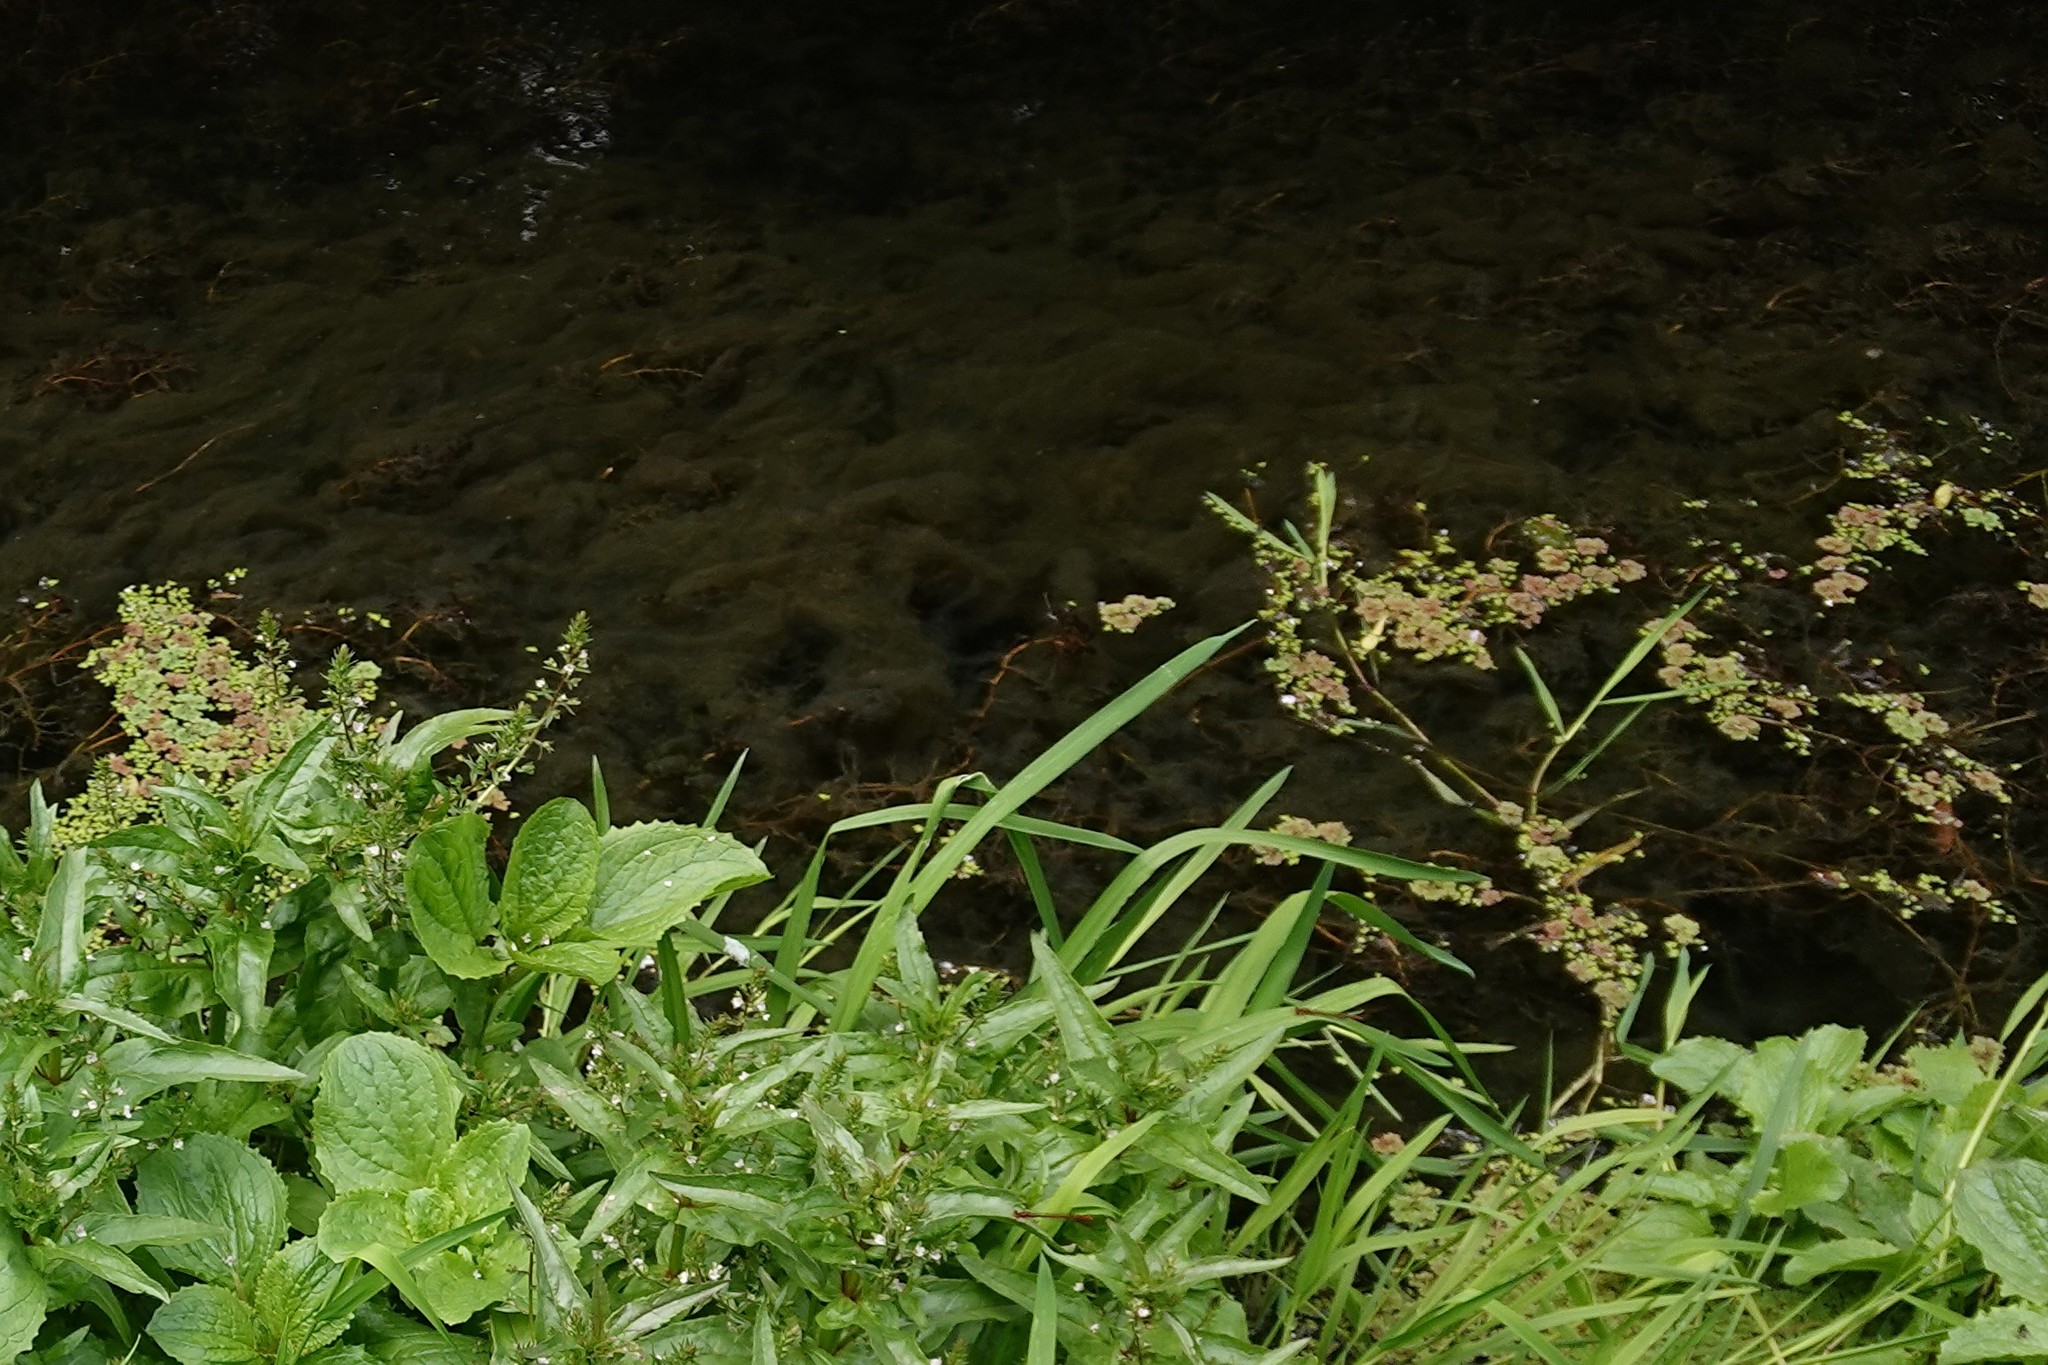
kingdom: Plantae
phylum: Tracheophyta
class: Polypodiopsida
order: Salviniales
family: Salviniaceae
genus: Azolla
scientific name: Azolla rubra
